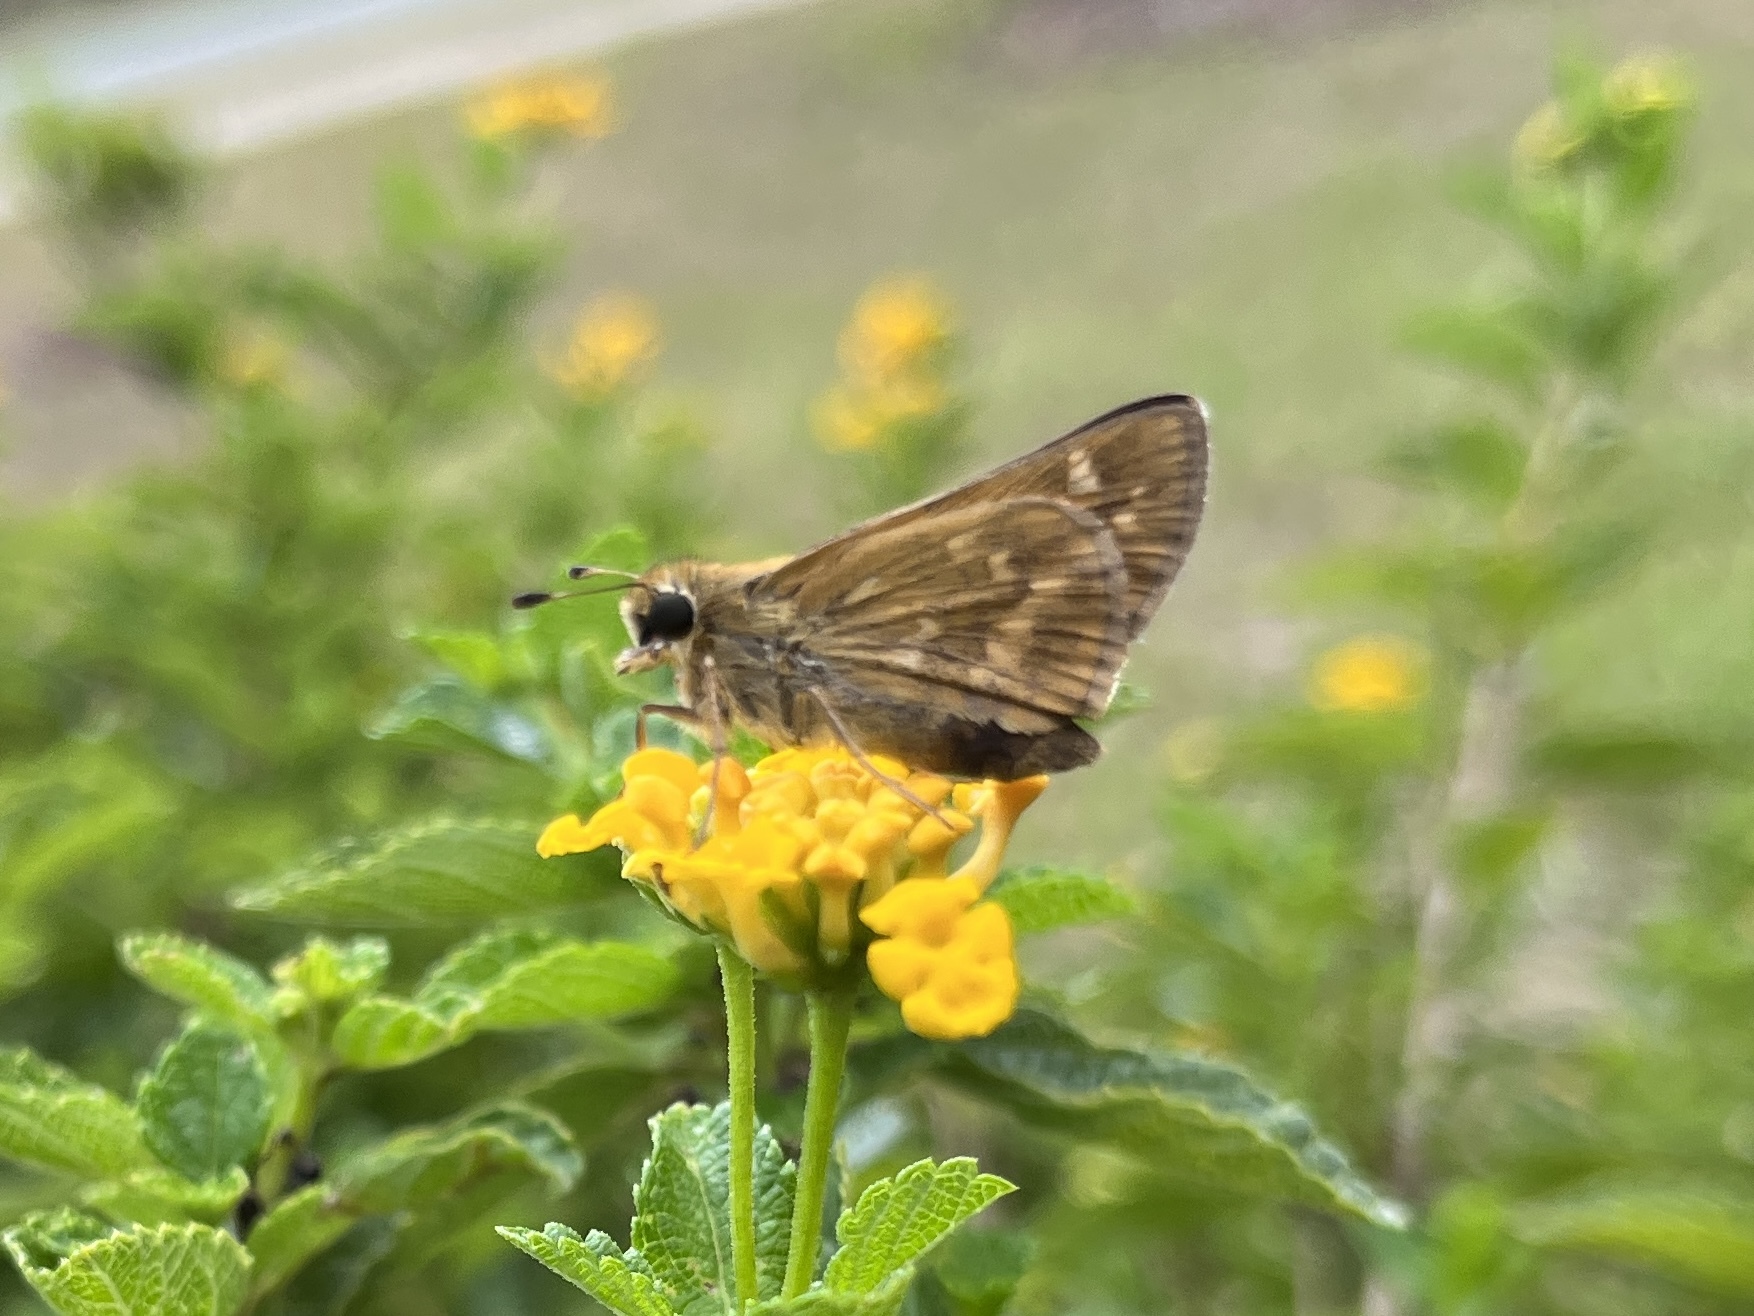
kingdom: Animalia
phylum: Arthropoda
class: Insecta
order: Lepidoptera
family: Hesperiidae
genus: Atalopedes
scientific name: Atalopedes
